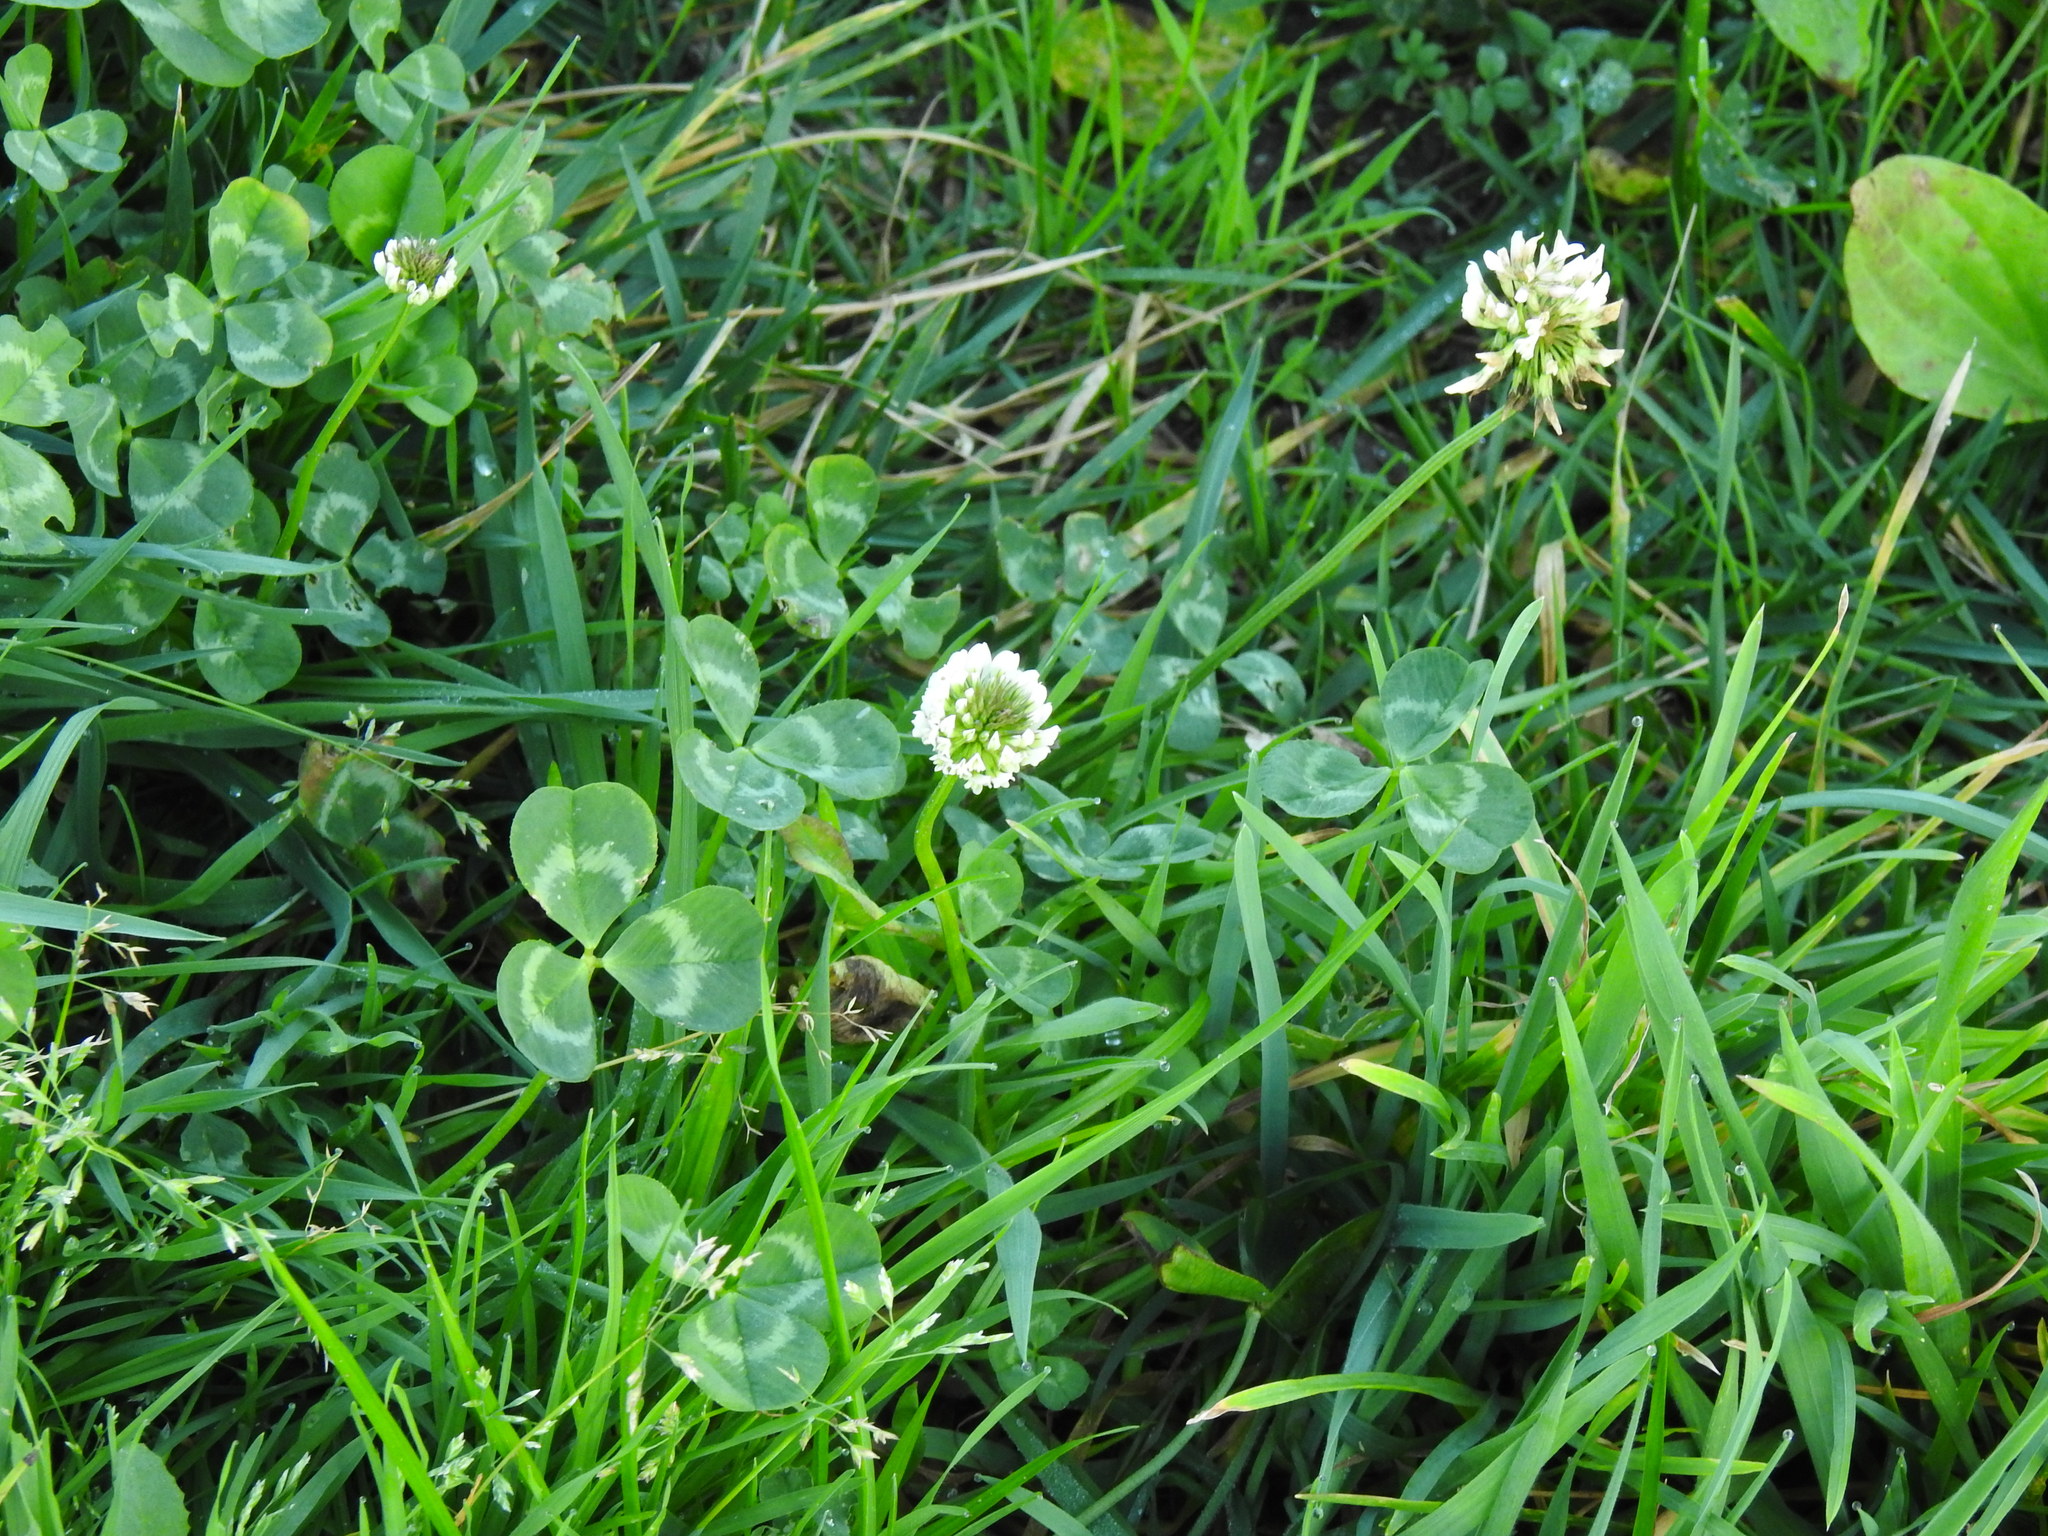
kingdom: Plantae
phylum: Tracheophyta
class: Magnoliopsida
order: Fabales
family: Fabaceae
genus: Trifolium
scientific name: Trifolium repens
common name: White clover
